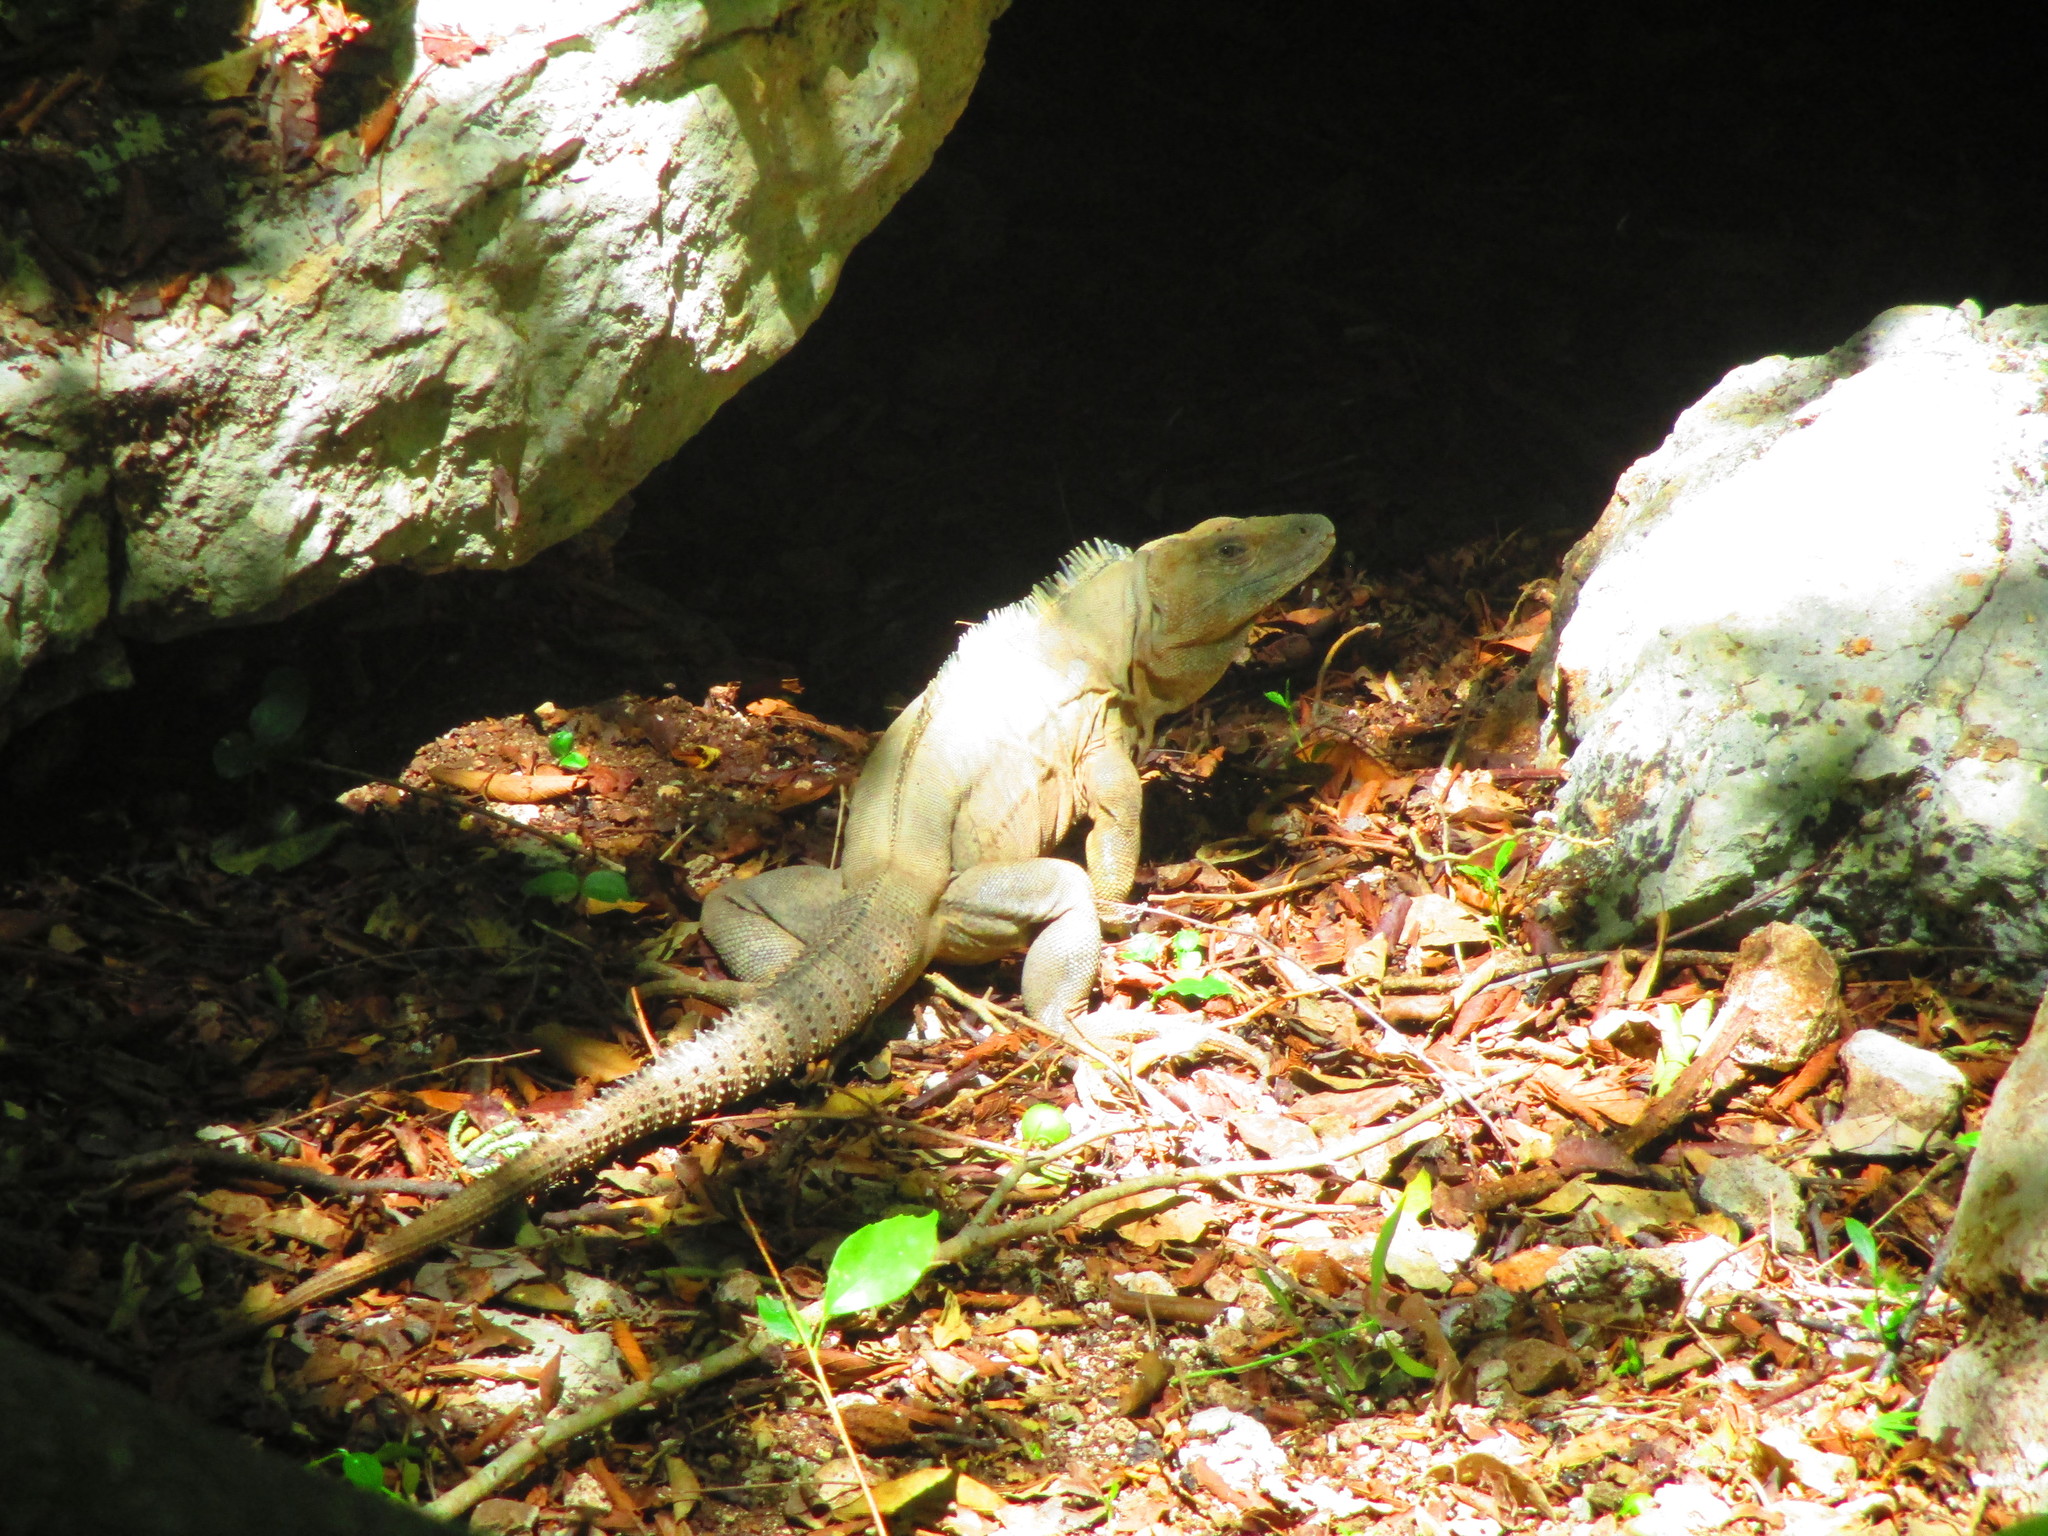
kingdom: Animalia
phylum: Chordata
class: Squamata
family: Iguanidae
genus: Ctenosaura
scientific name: Ctenosaura similis
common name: Black spiny-tailed iguana
